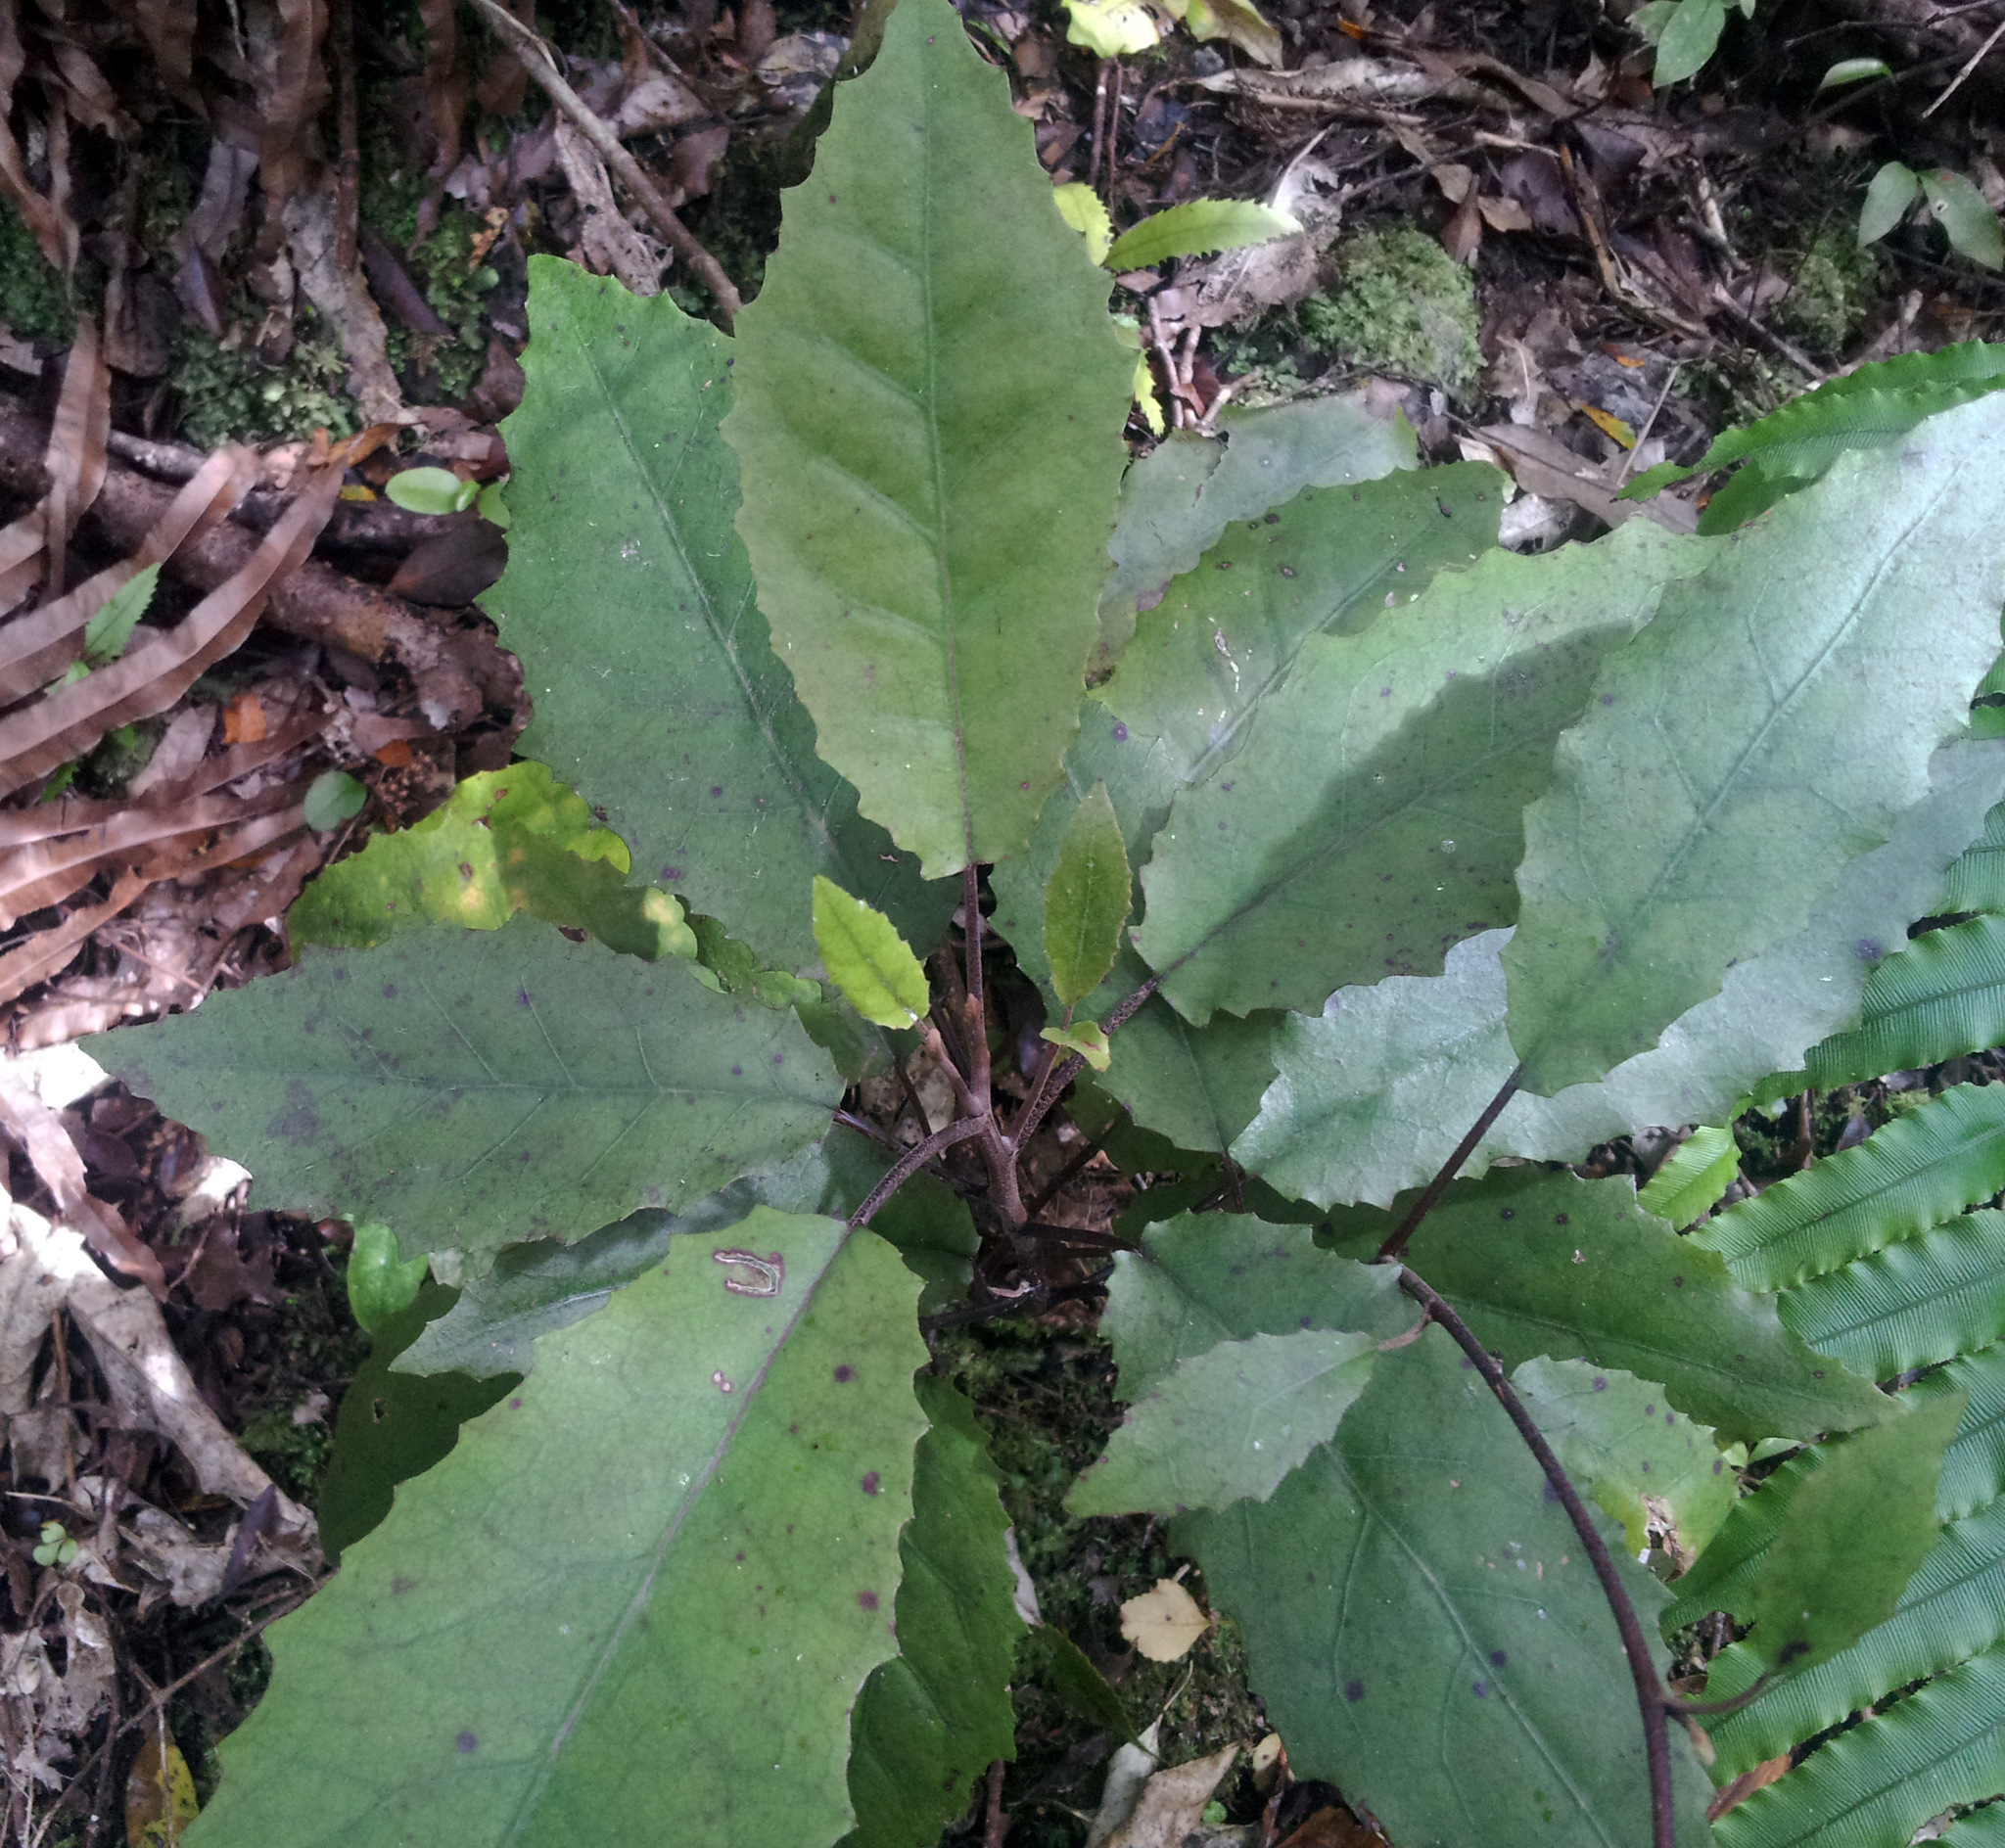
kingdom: Plantae
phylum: Tracheophyta
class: Magnoliopsida
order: Asterales
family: Asteraceae
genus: Brachyglottis
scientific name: Brachyglottis myrianthos
